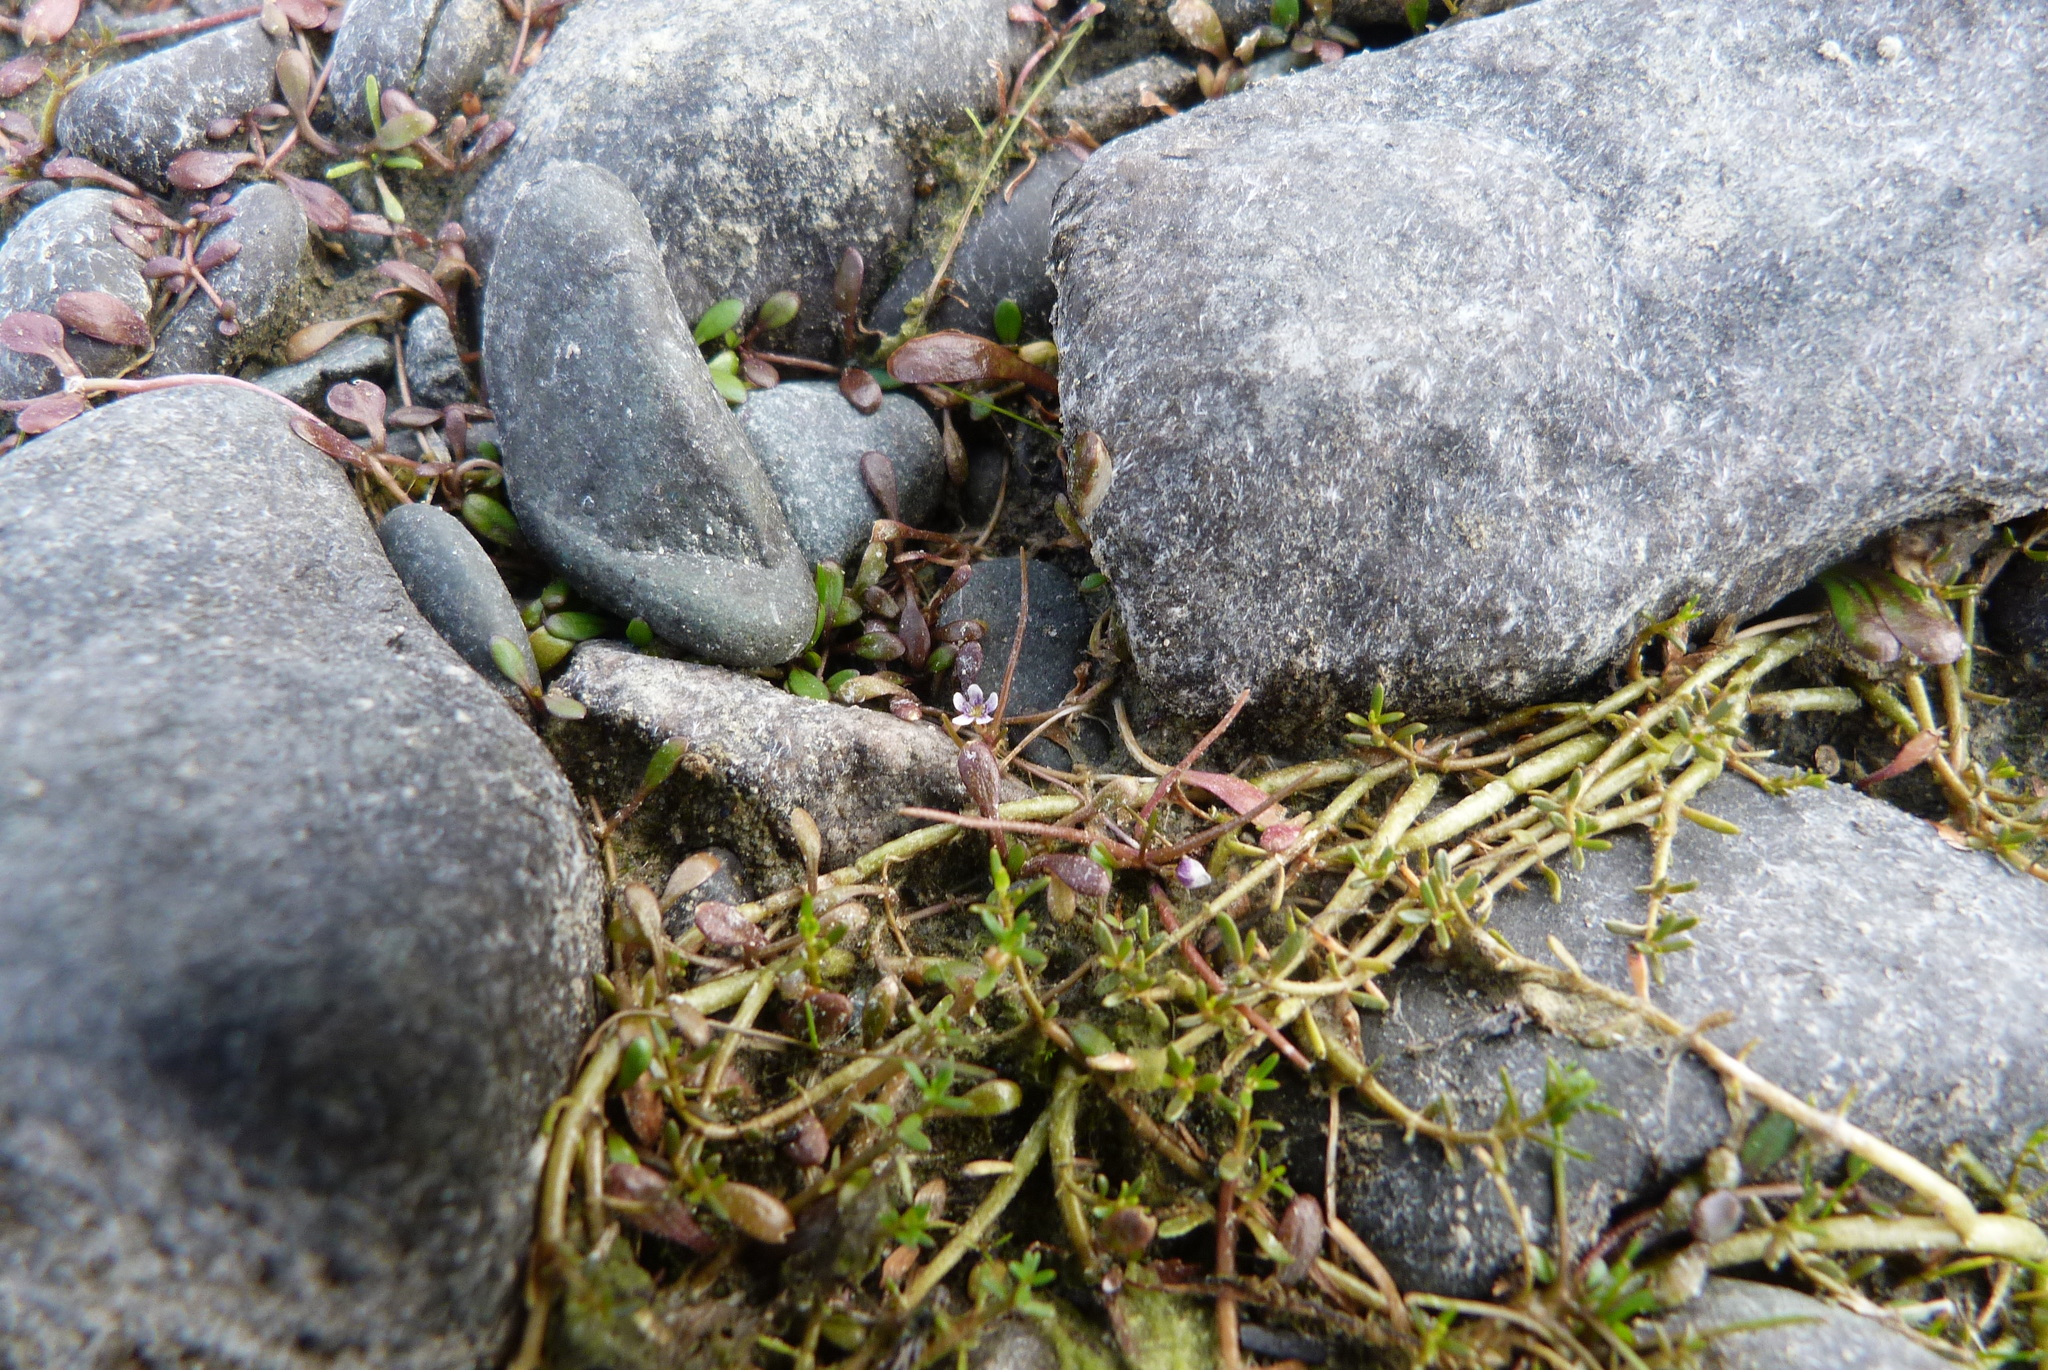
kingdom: Plantae
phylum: Tracheophyta
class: Magnoliopsida
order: Lamiales
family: Phrymaceae
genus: Glossostigma
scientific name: Glossostigma elatinoides
